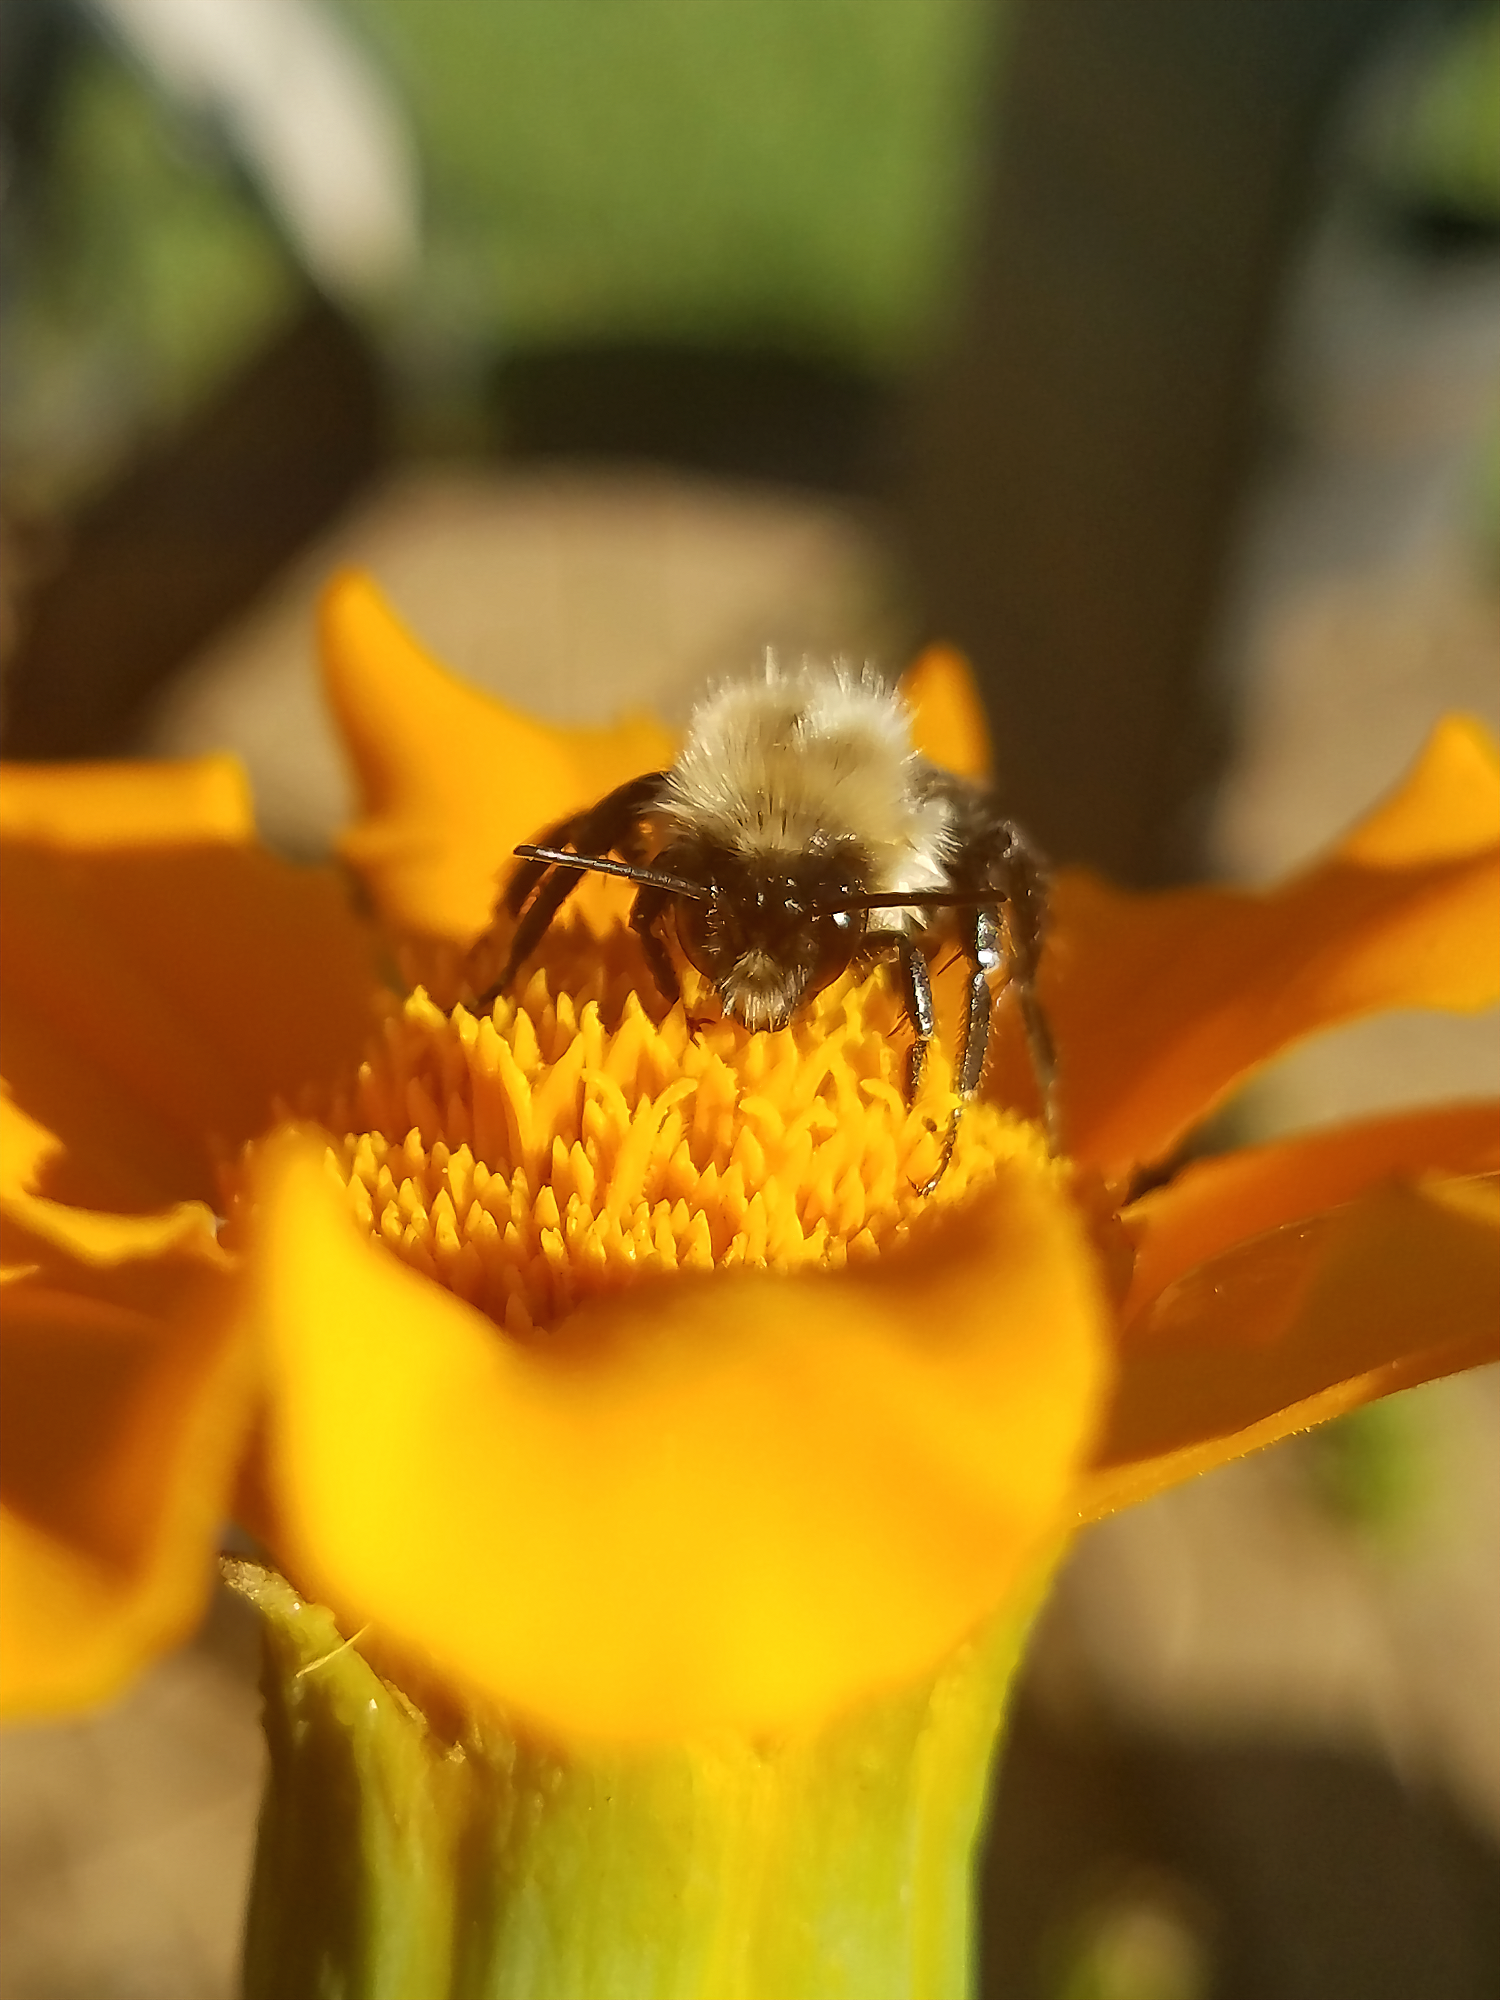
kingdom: Animalia
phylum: Arthropoda
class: Insecta
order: Hymenoptera
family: Apidae
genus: Bombus
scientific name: Bombus impatiens
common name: Common eastern bumble bee
